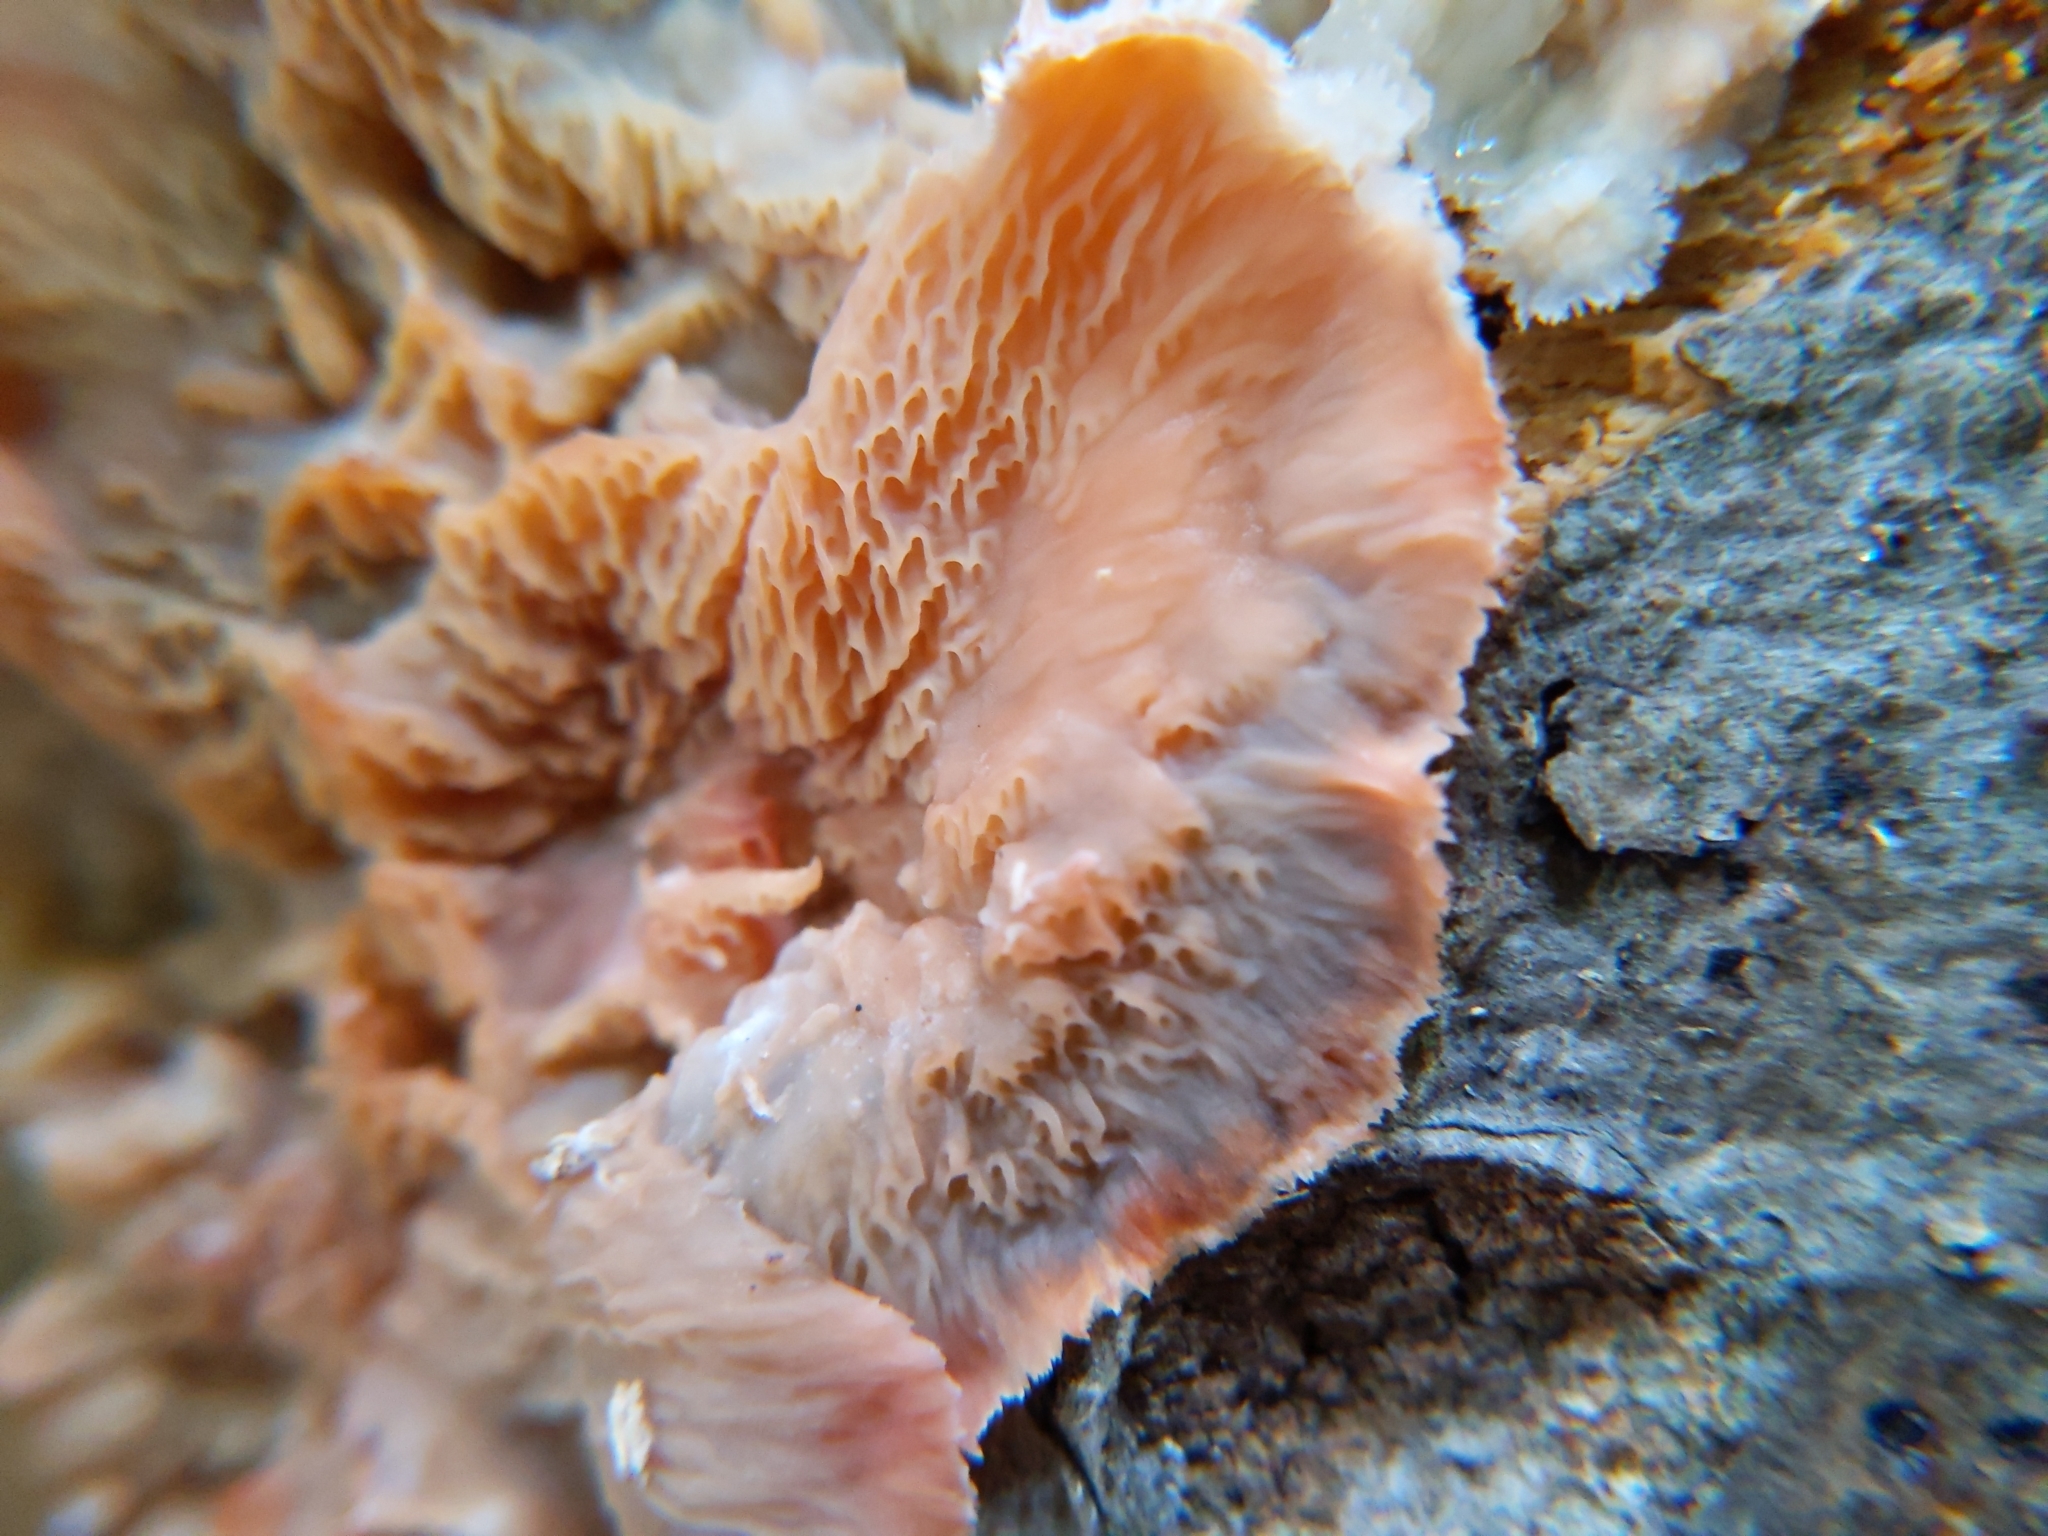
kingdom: Fungi
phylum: Basidiomycota
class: Agaricomycetes
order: Polyporales
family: Meruliaceae
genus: Phlebia
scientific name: Phlebia radiata
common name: Wrinkled crust
